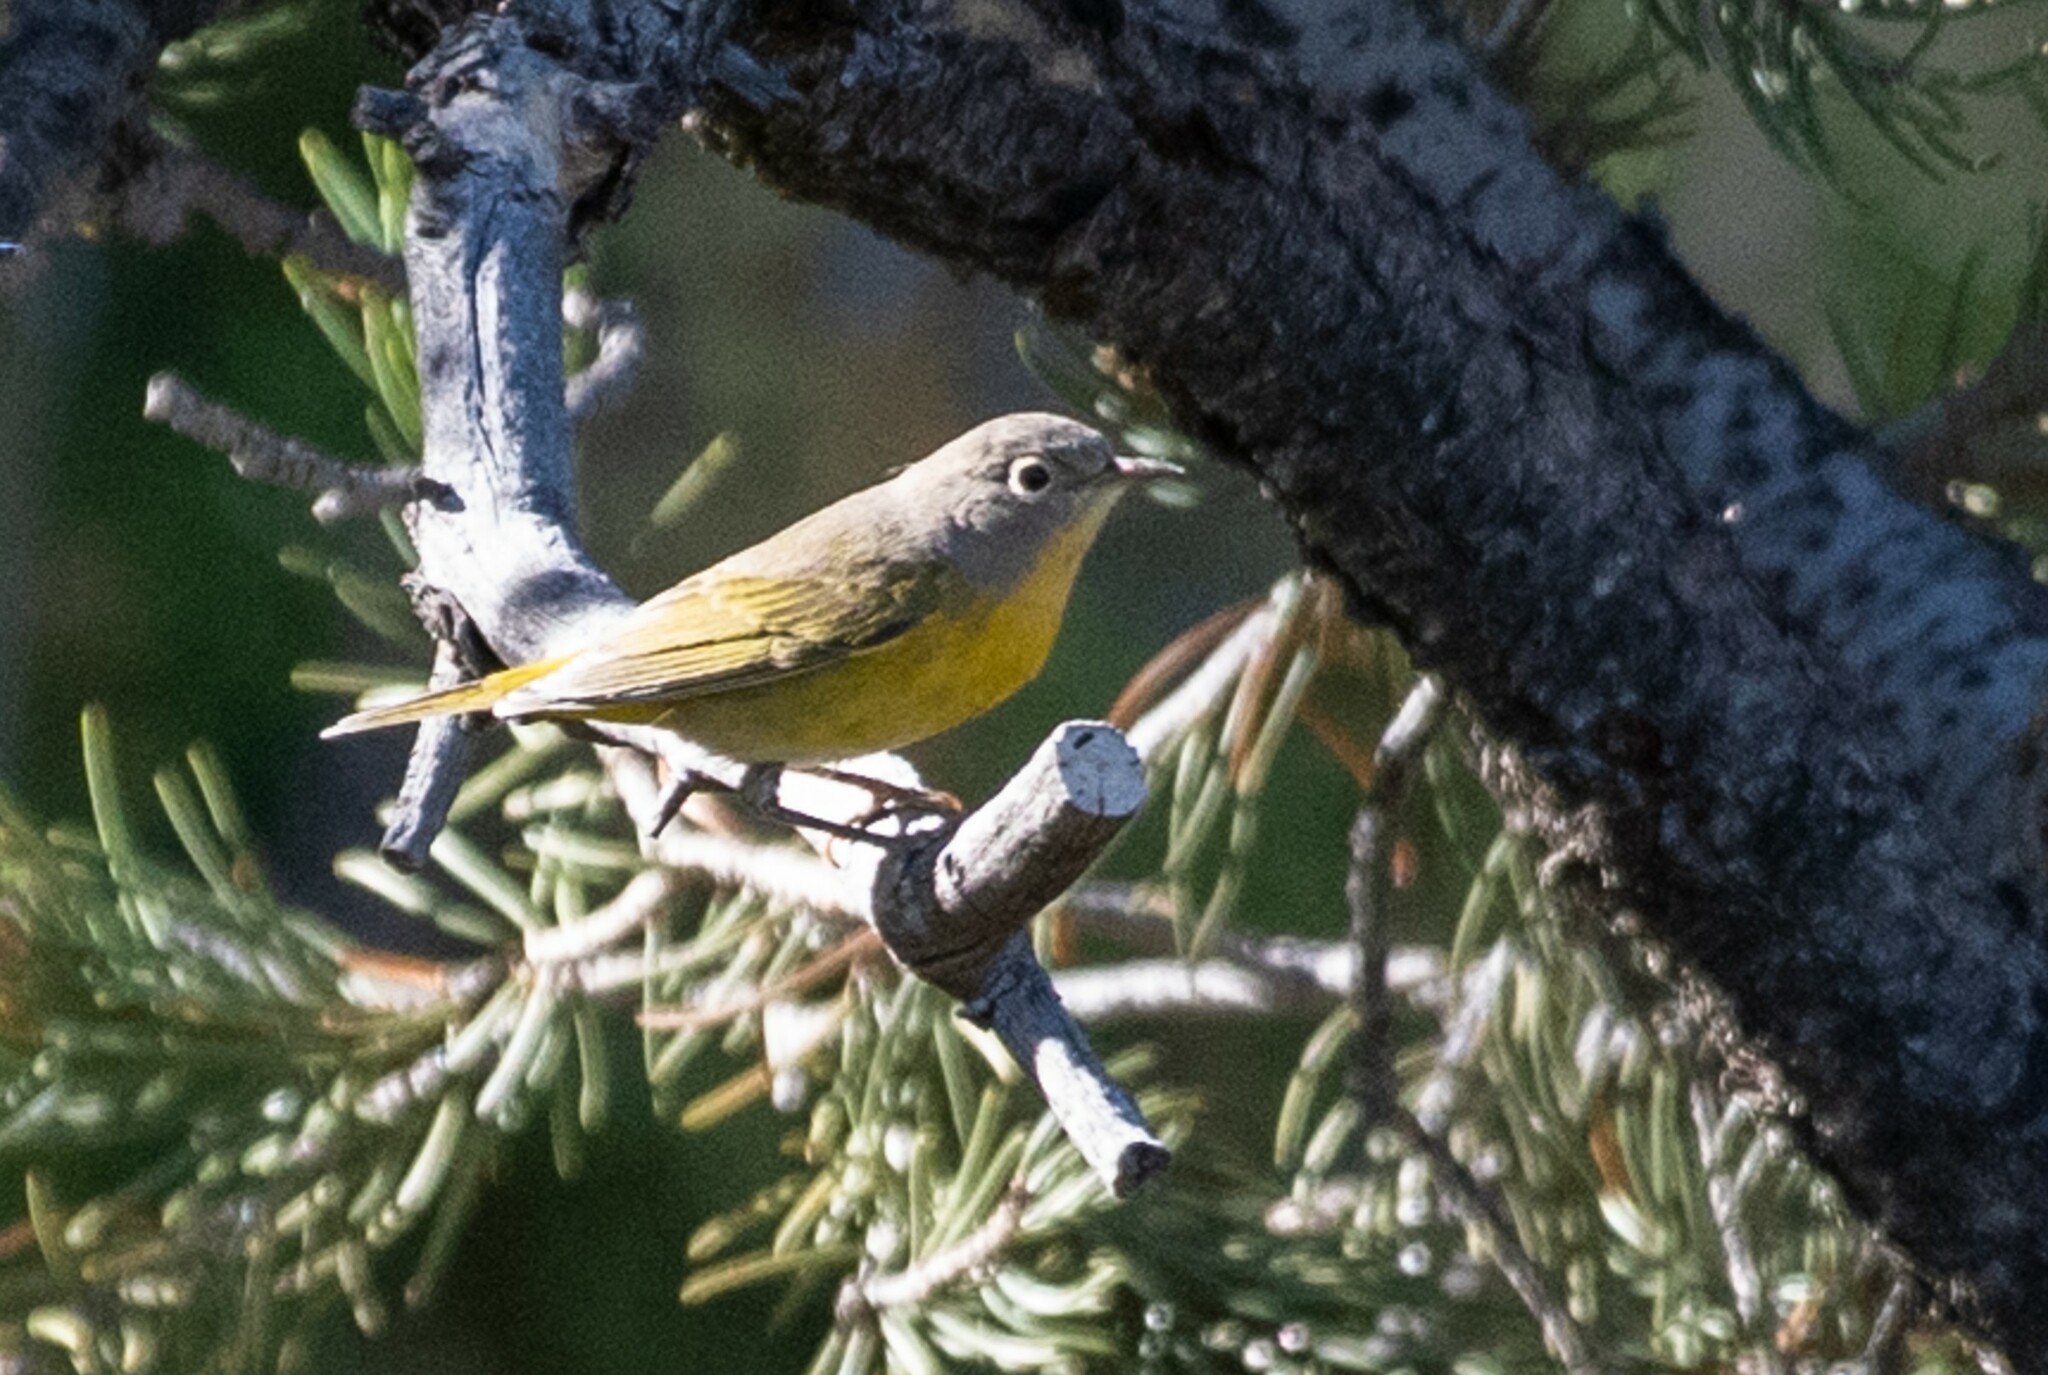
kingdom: Animalia
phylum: Chordata
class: Aves
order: Passeriformes
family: Parulidae
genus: Leiothlypis
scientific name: Leiothlypis ruficapilla
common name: Nashville warbler
